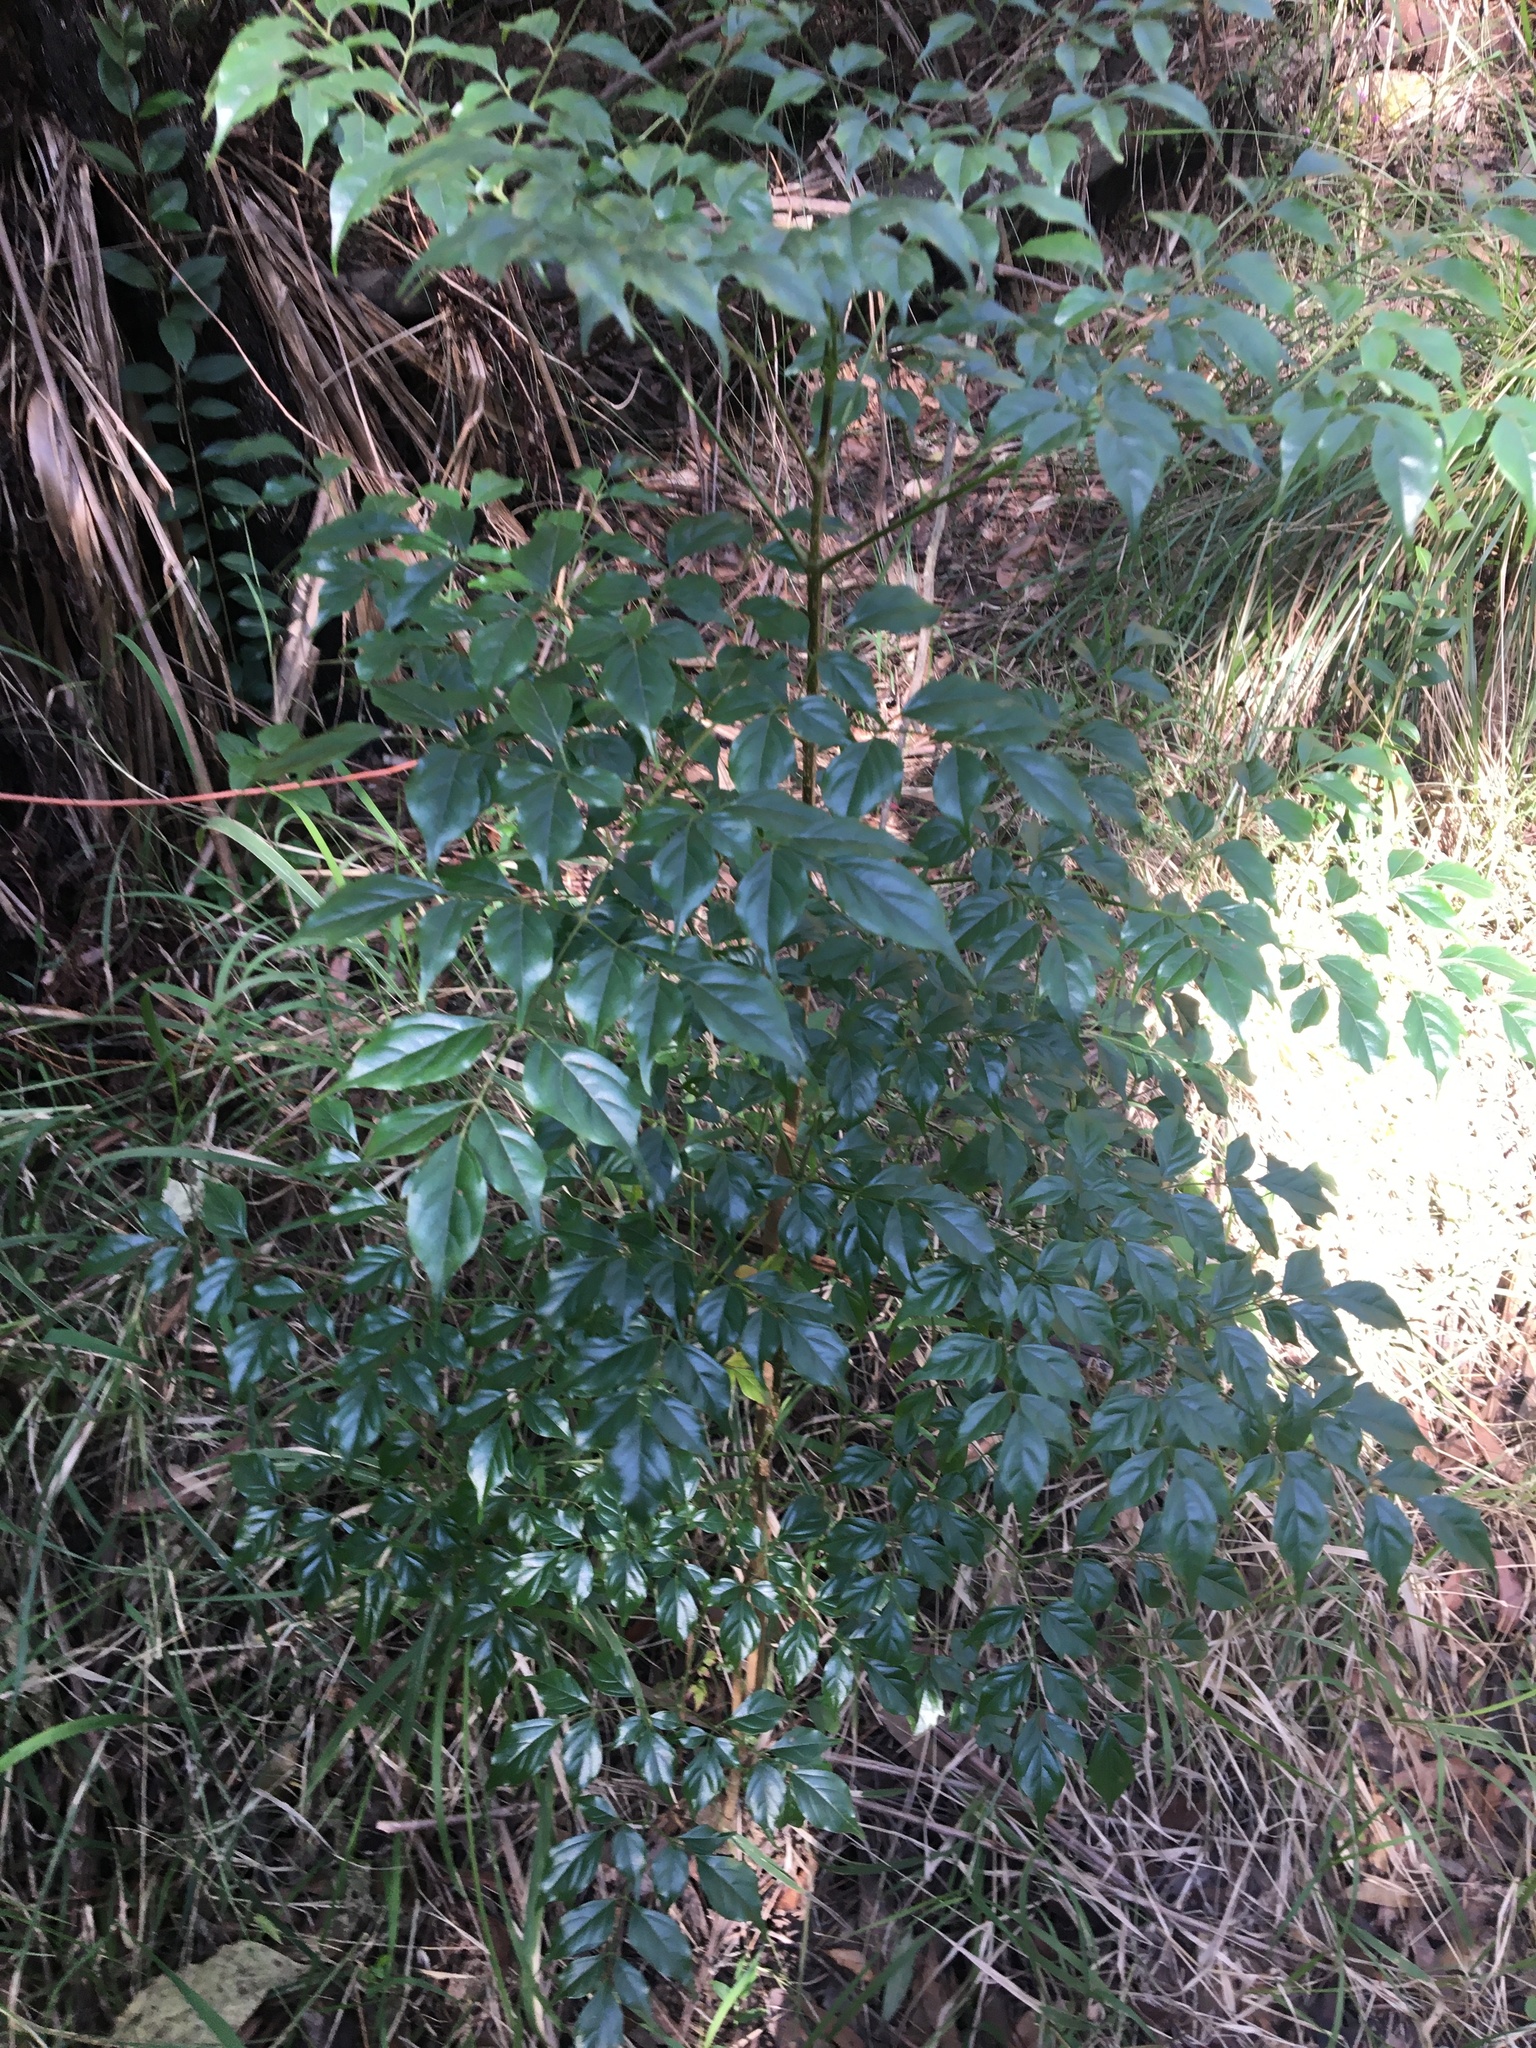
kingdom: Plantae
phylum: Tracheophyta
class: Magnoliopsida
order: Lamiales
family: Bignoniaceae
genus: Radermachera
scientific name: Radermachera sinica
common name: China doll plant
